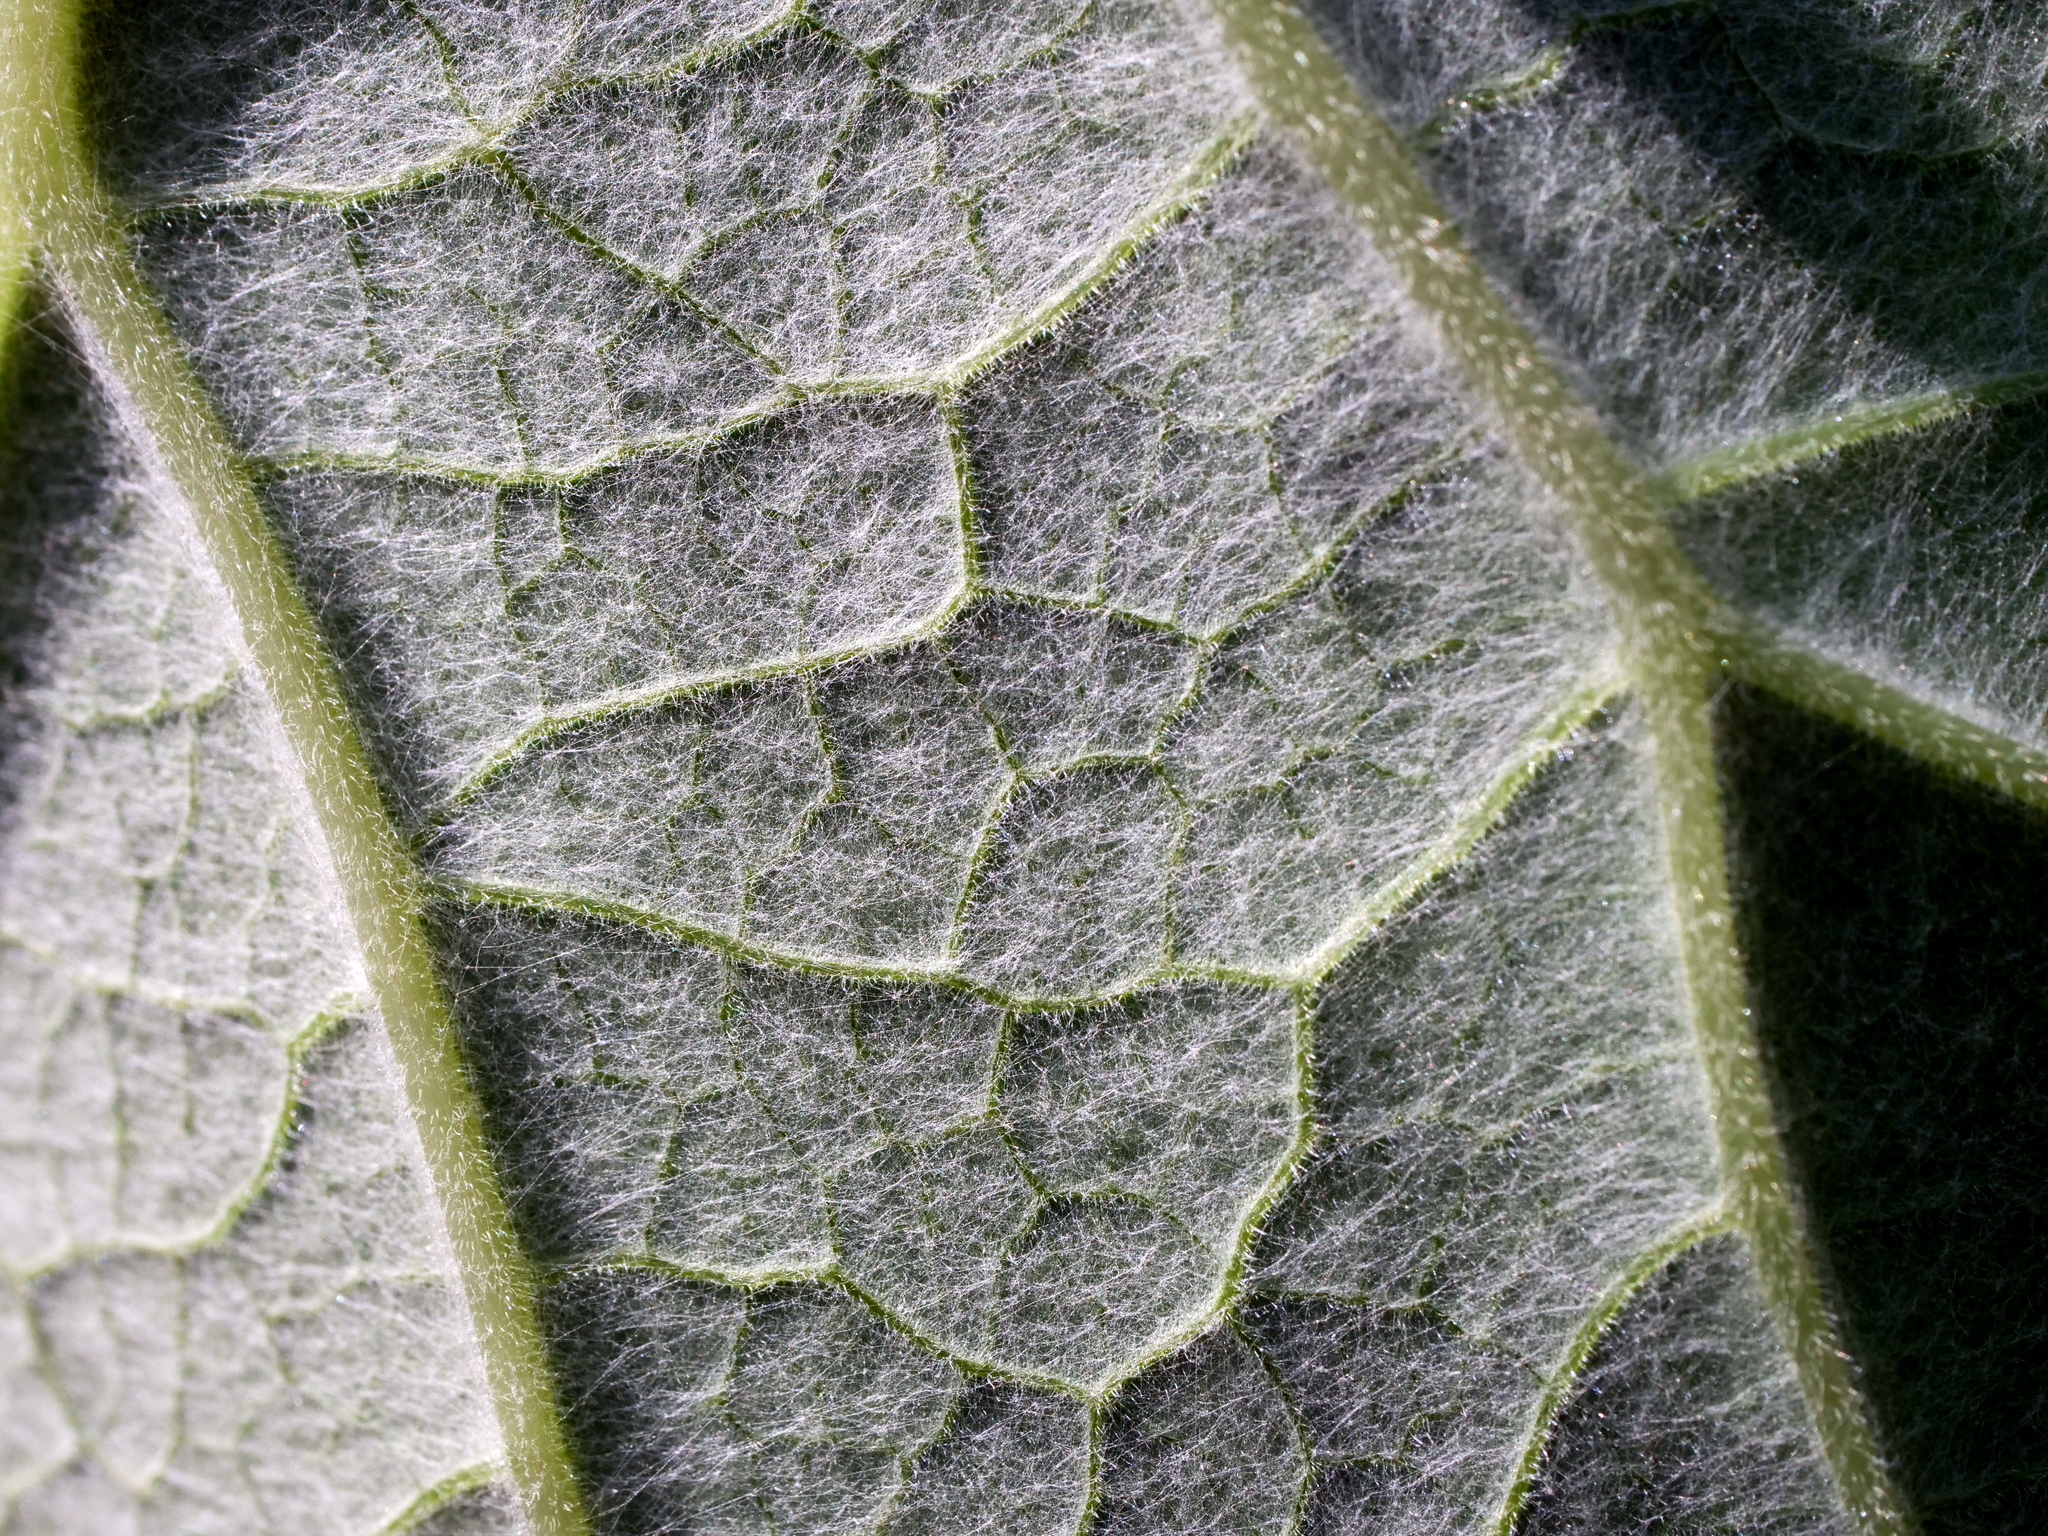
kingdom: Plantae
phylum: Tracheophyta
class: Magnoliopsida
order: Asterales
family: Asteraceae
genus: Petasites
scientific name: Petasites albus
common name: White butterbur
